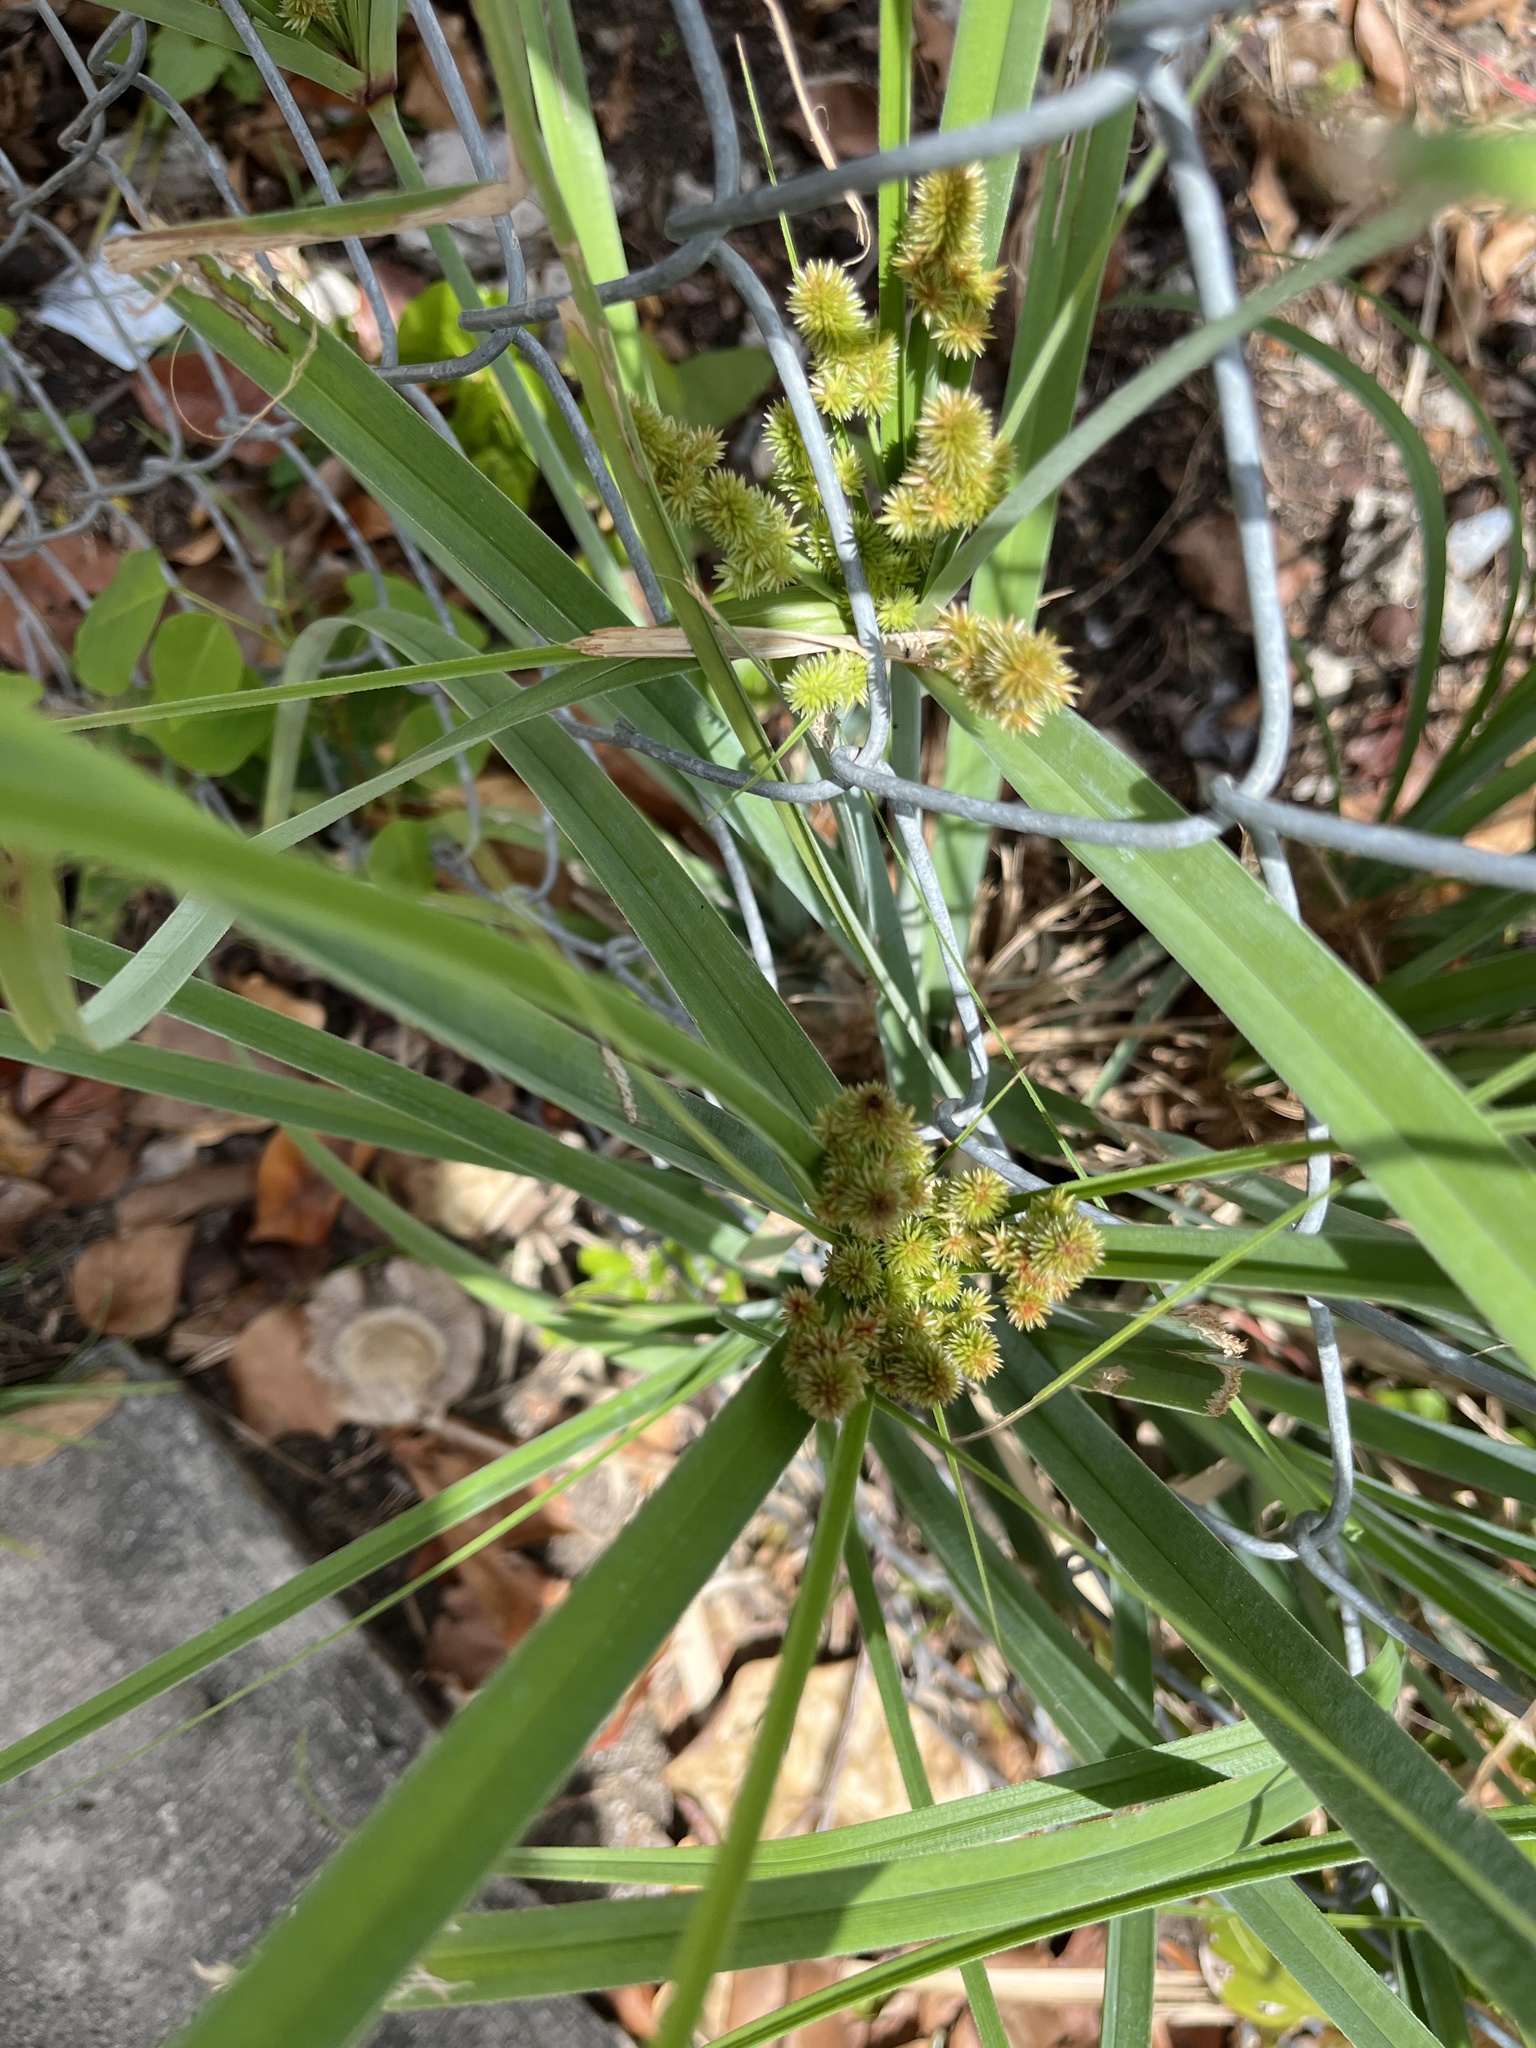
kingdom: Plantae
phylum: Tracheophyta
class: Liliopsida
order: Poales
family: Cyperaceae
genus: Cyperus
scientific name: Cyperus ligularis
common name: Swamp flat sedge
